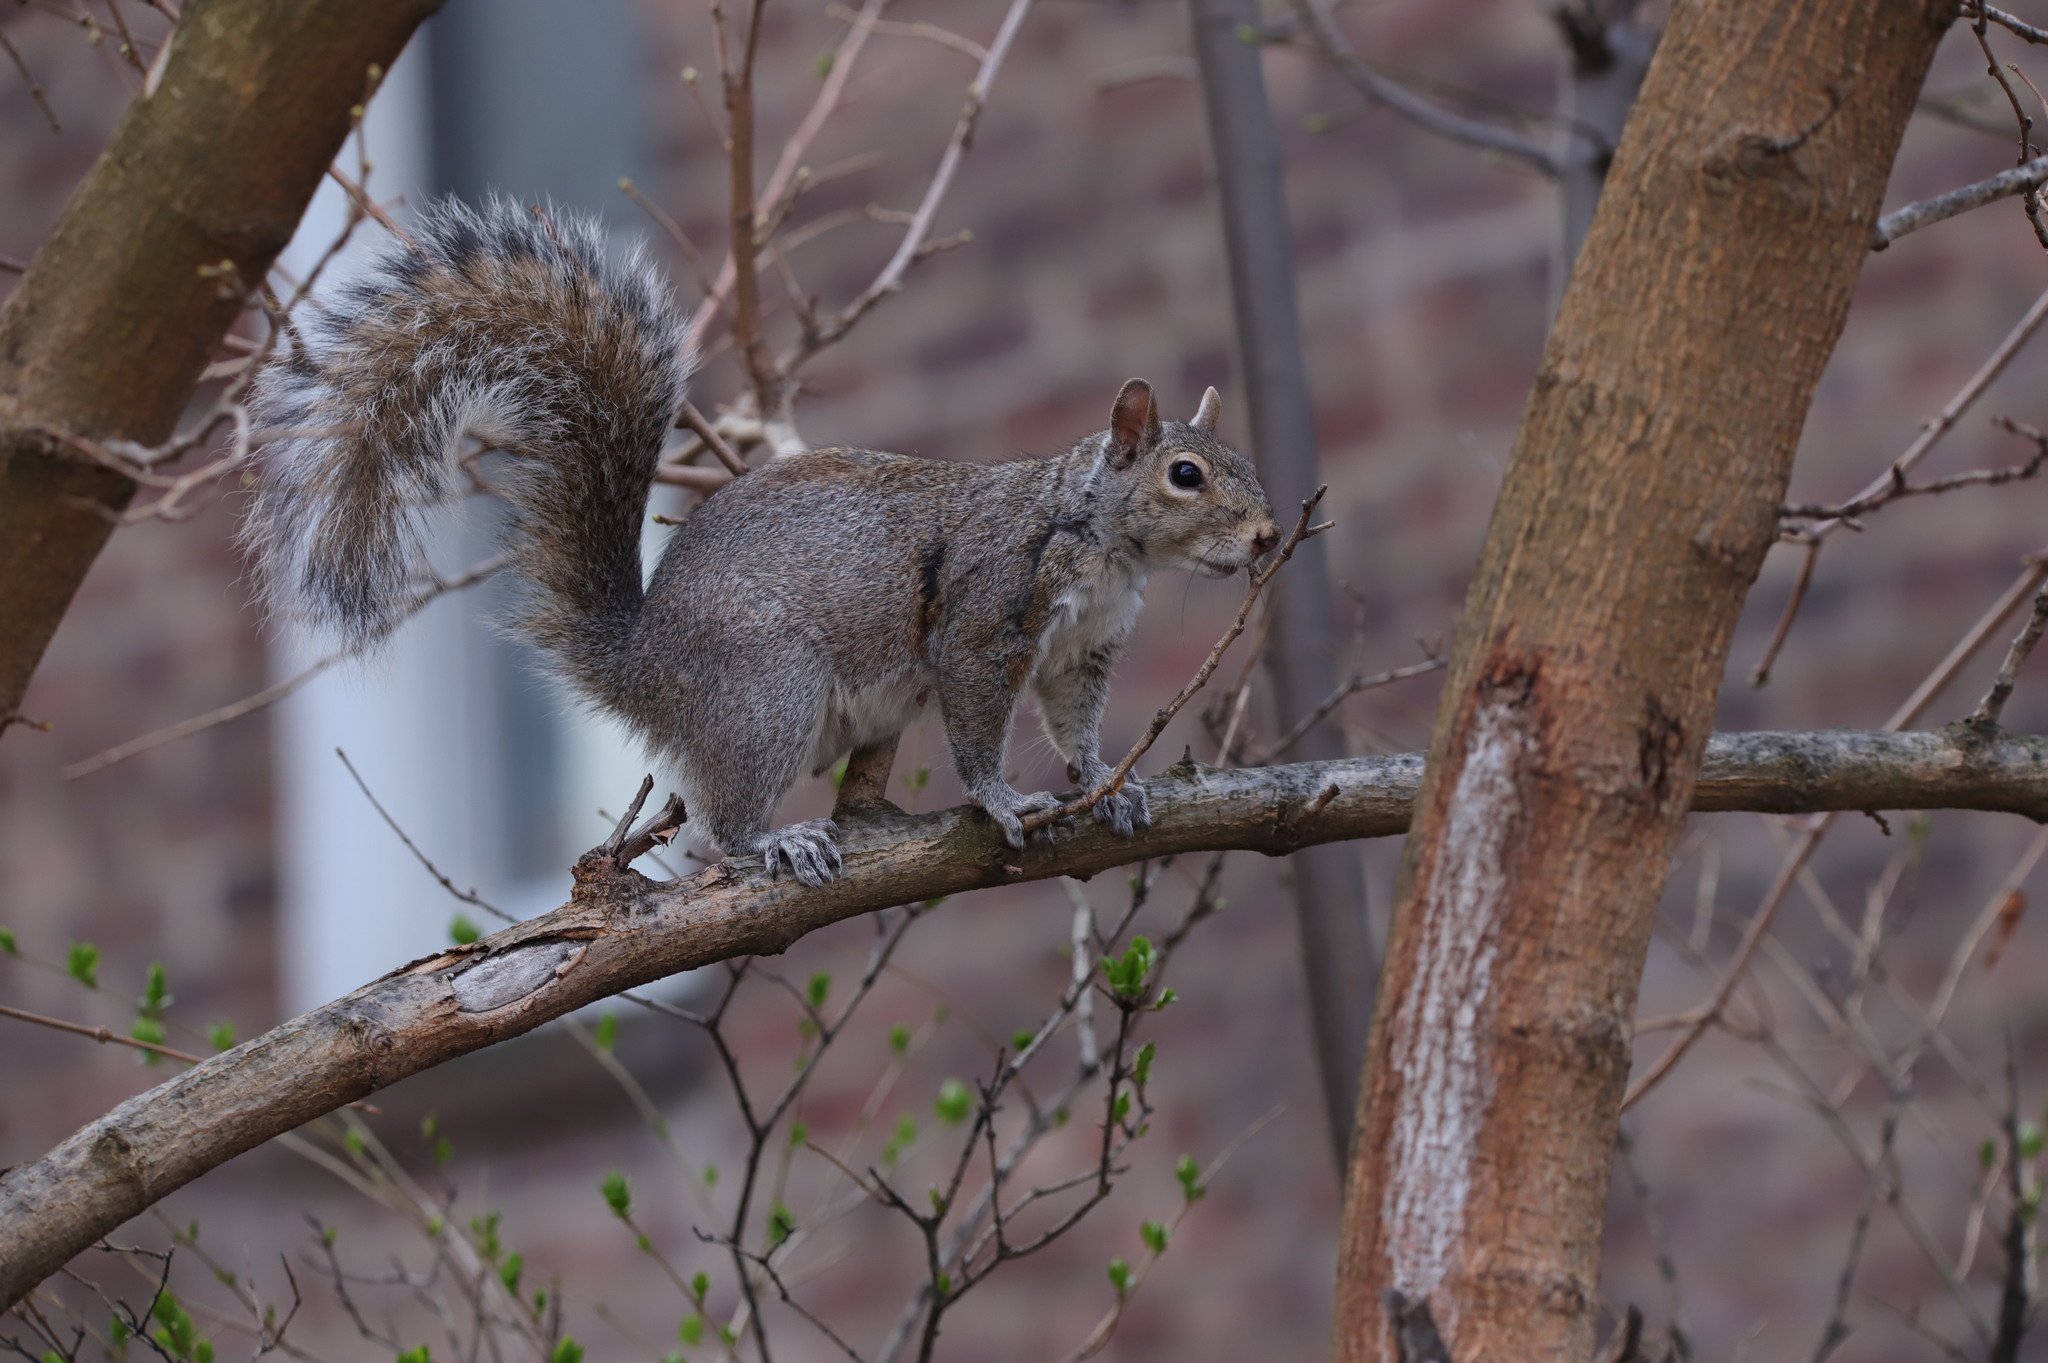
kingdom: Animalia
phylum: Chordata
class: Mammalia
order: Rodentia
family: Sciuridae
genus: Sciurus
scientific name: Sciurus carolinensis
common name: Eastern gray squirrel
